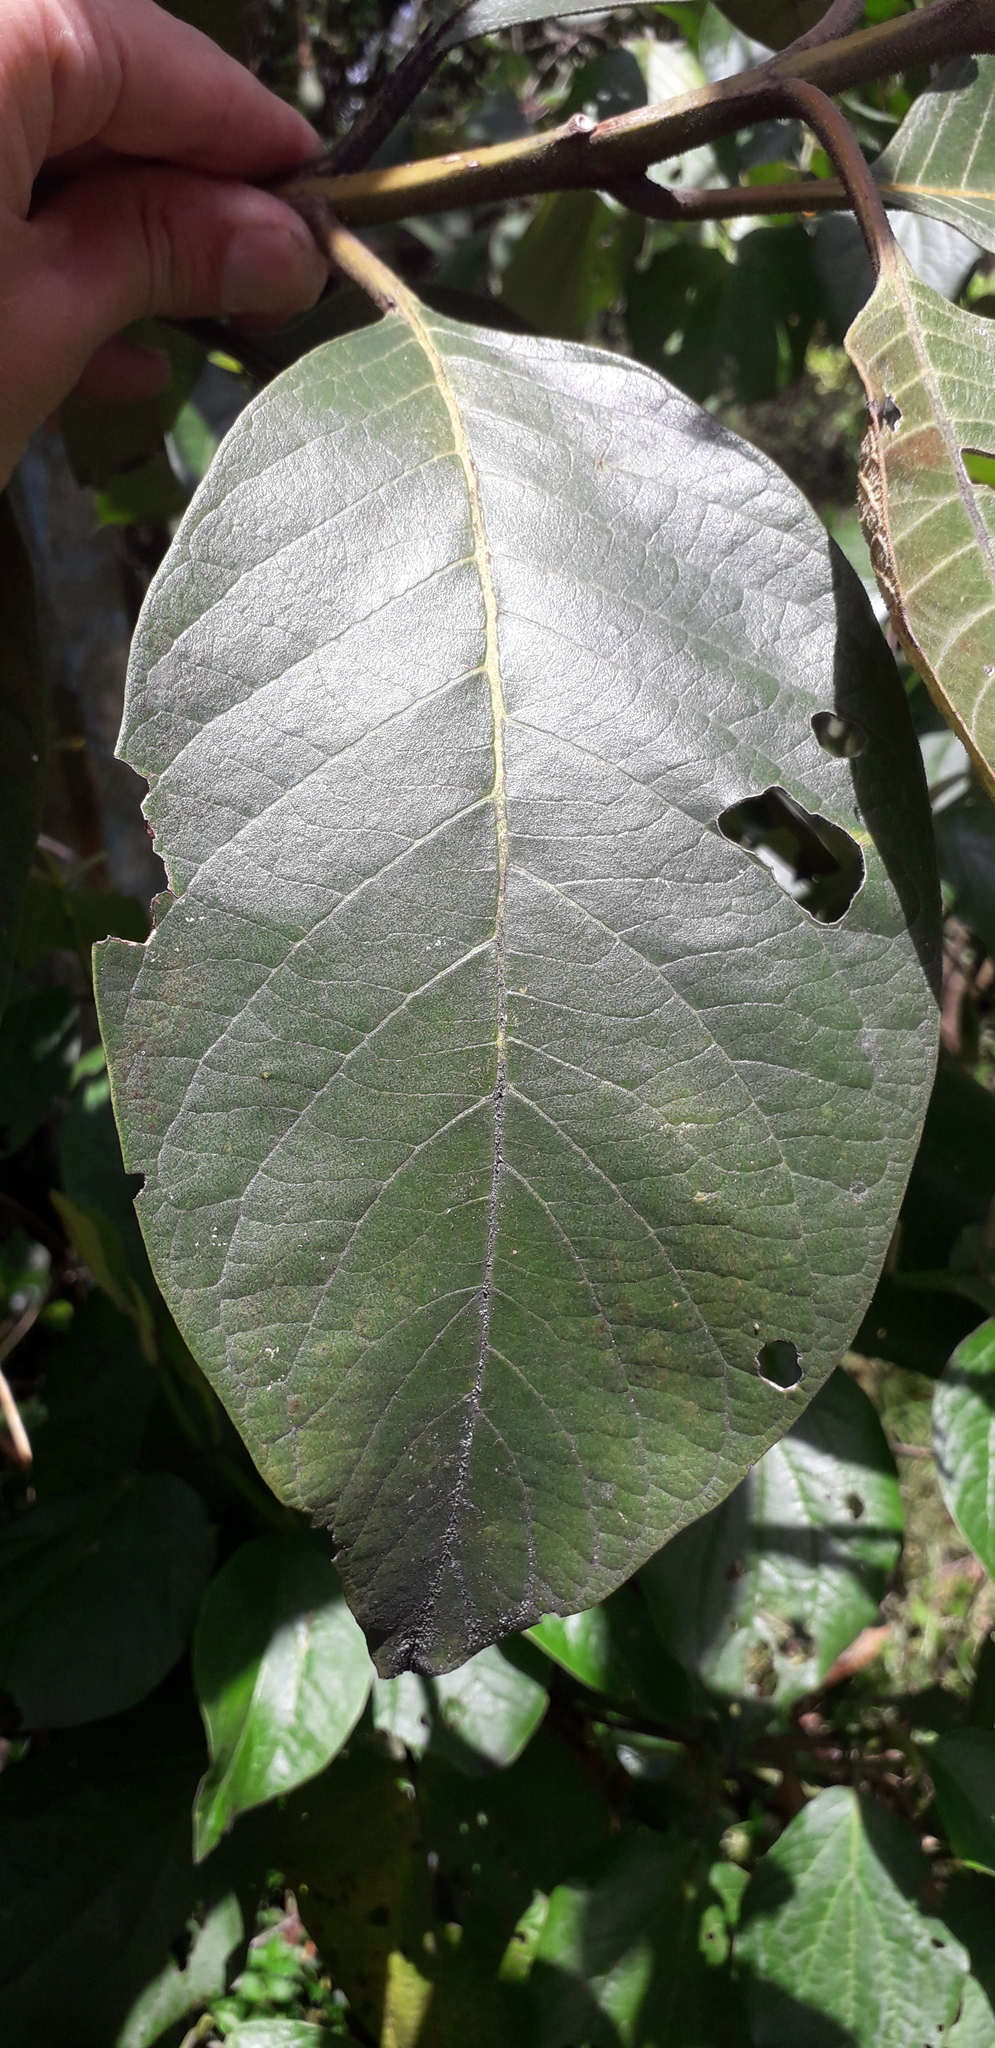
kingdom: Plantae
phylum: Tracheophyta
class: Magnoliopsida
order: Lamiales
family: Verbenaceae
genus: Citharexylum
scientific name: Citharexylum subflavescens
